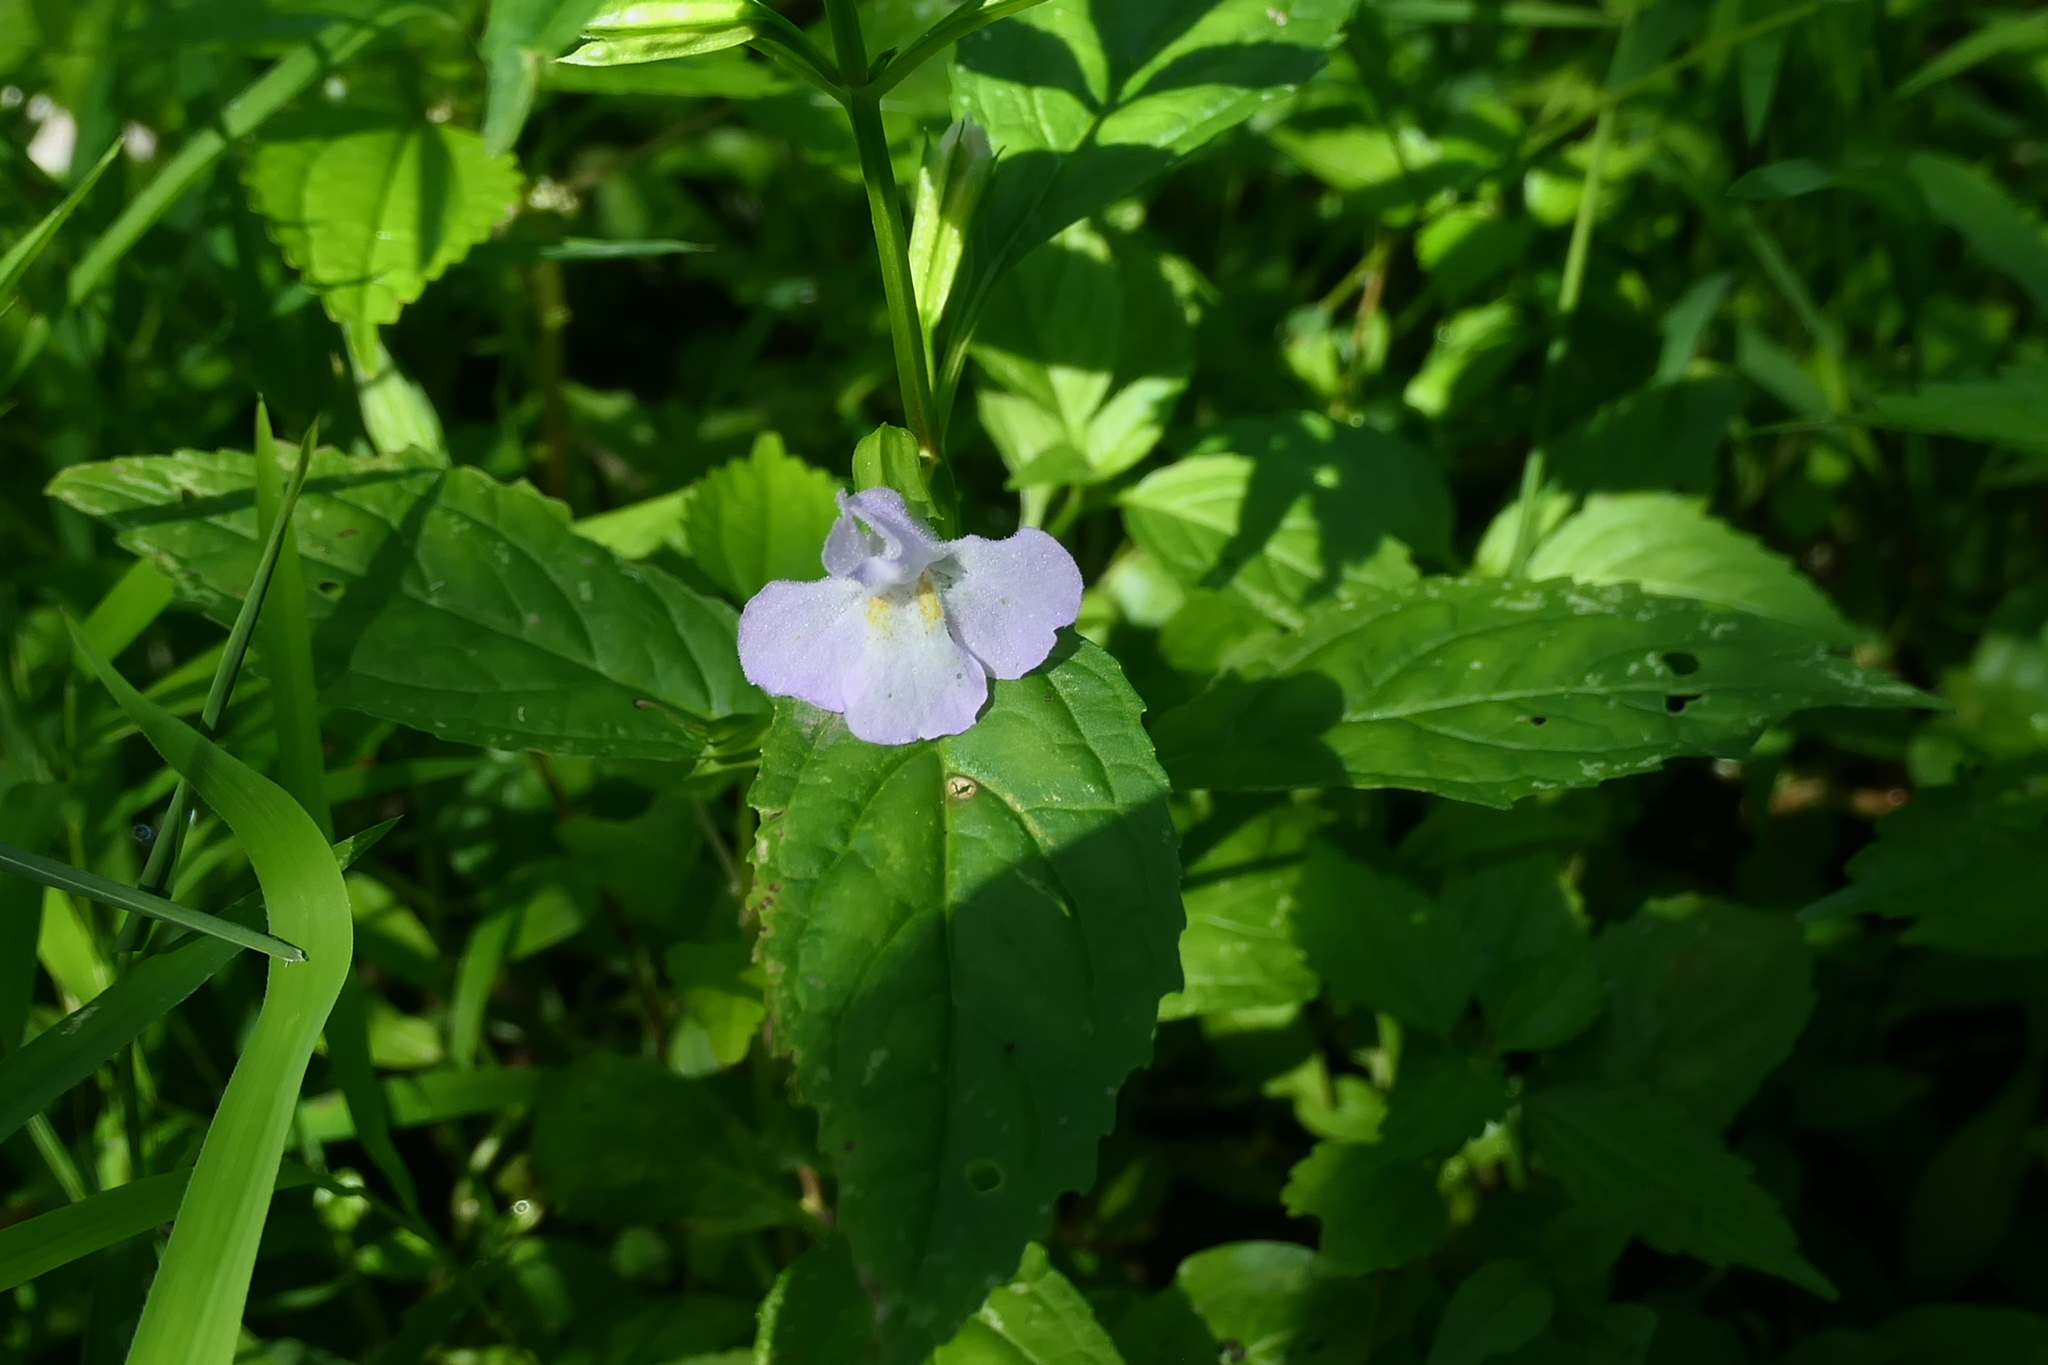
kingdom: Plantae
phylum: Tracheophyta
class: Magnoliopsida
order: Lamiales
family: Phrymaceae
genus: Mimulus
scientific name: Mimulus alatus
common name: Sharp-wing monkey-flower
